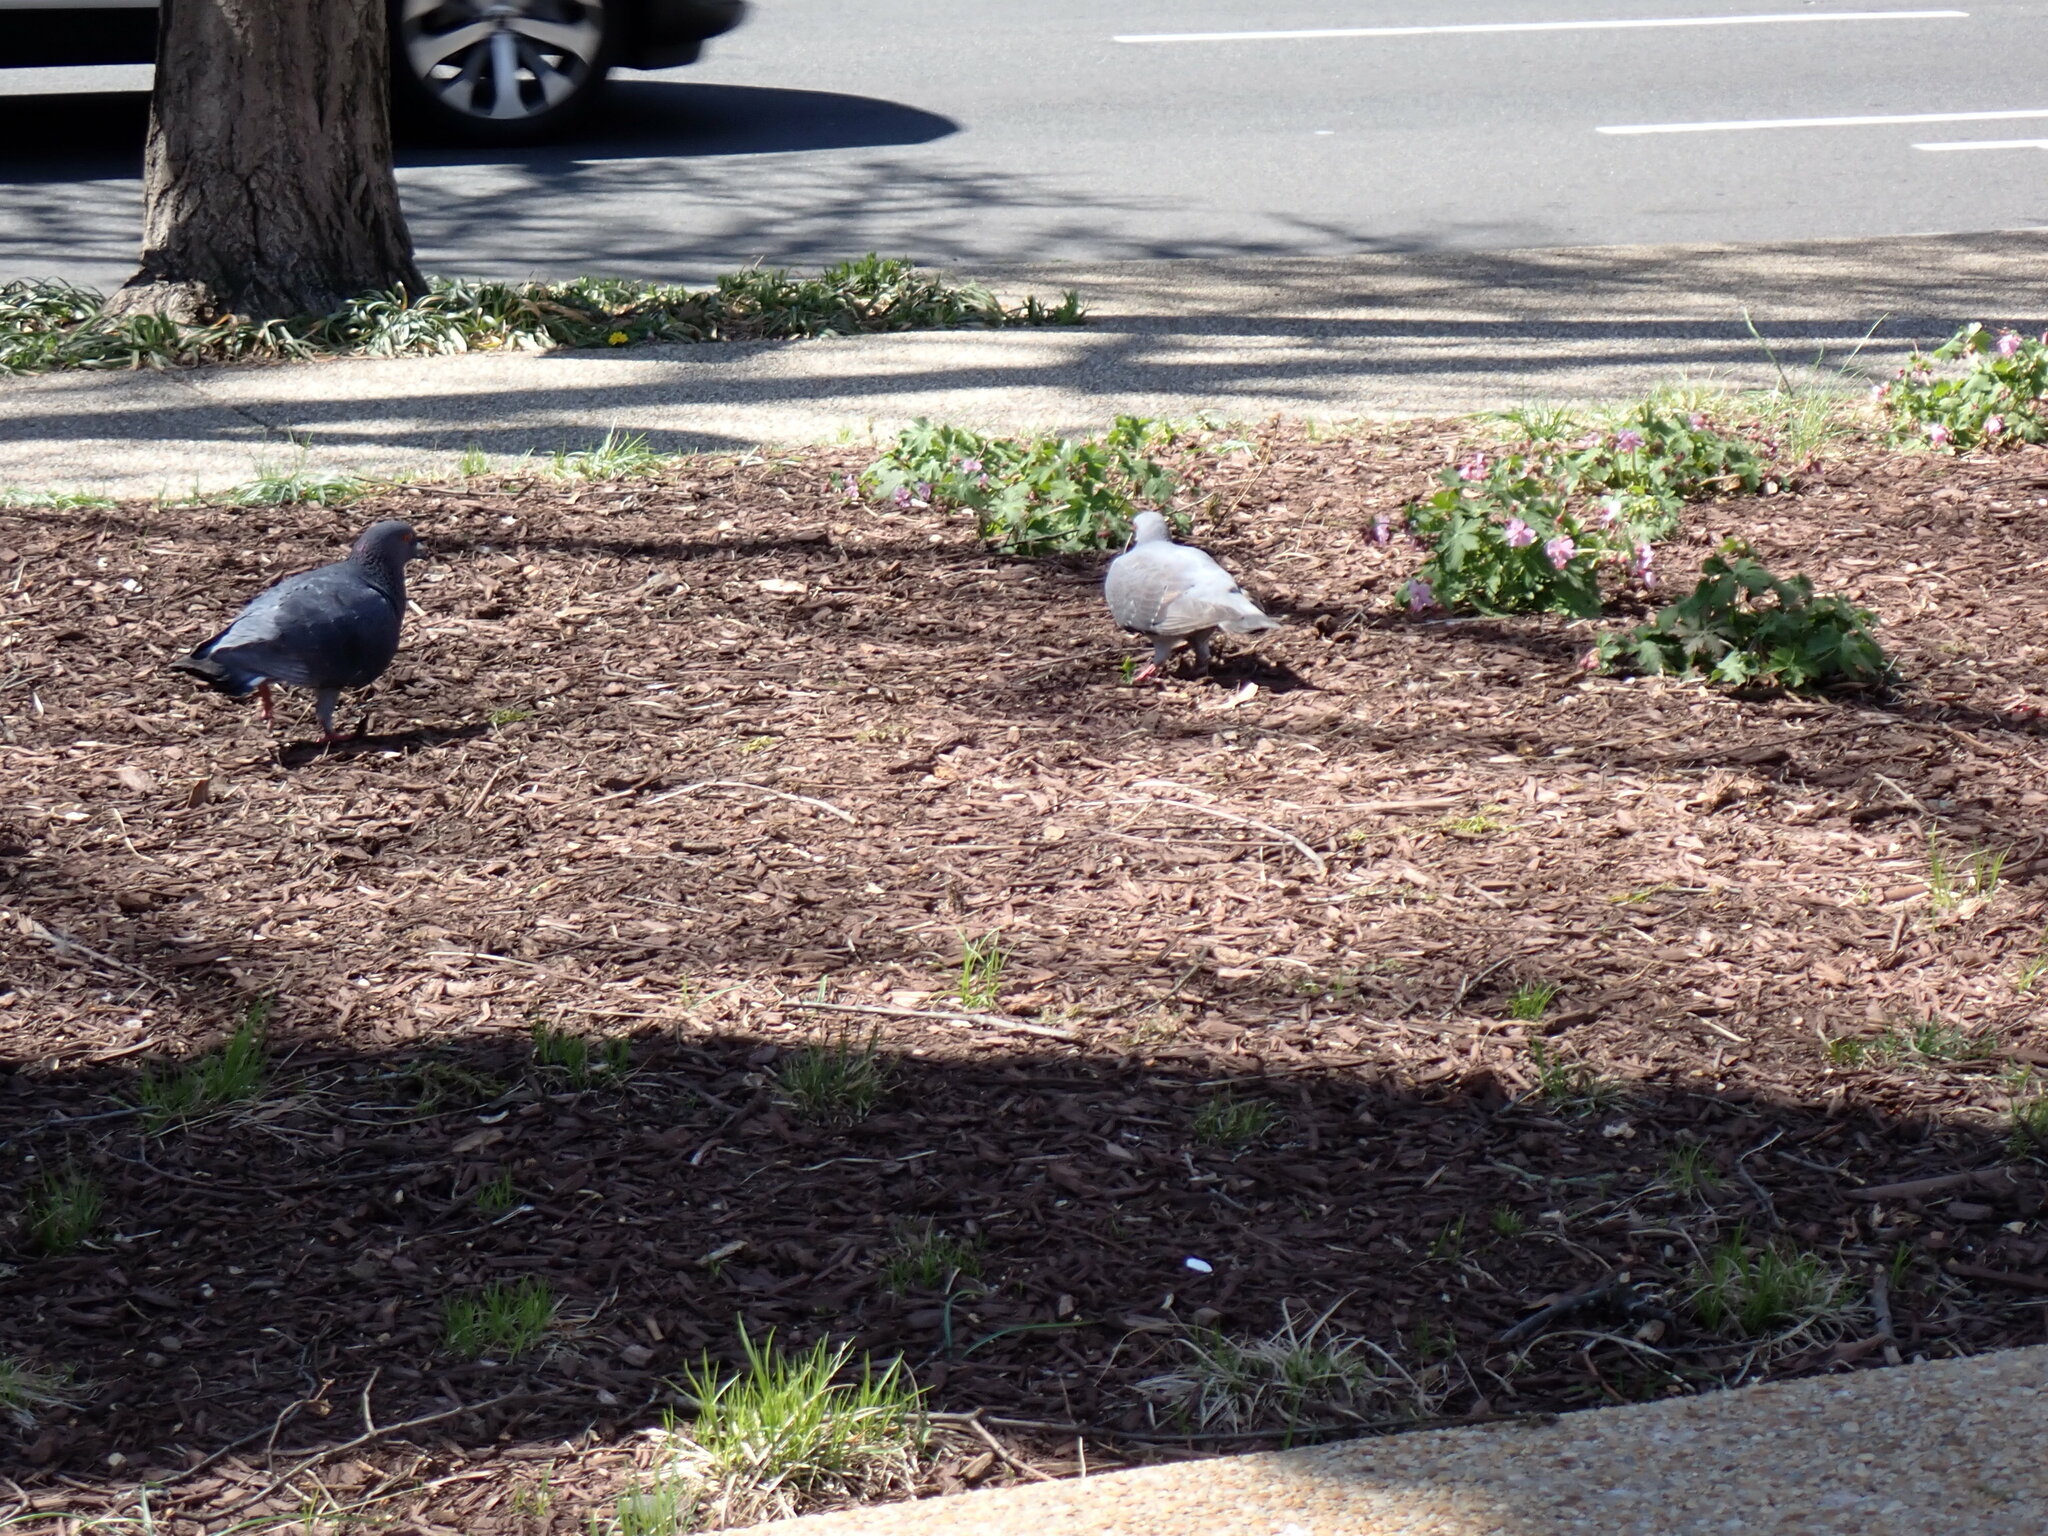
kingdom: Animalia
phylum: Chordata
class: Aves
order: Columbiformes
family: Columbidae
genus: Columba
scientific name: Columba livia
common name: Rock pigeon
